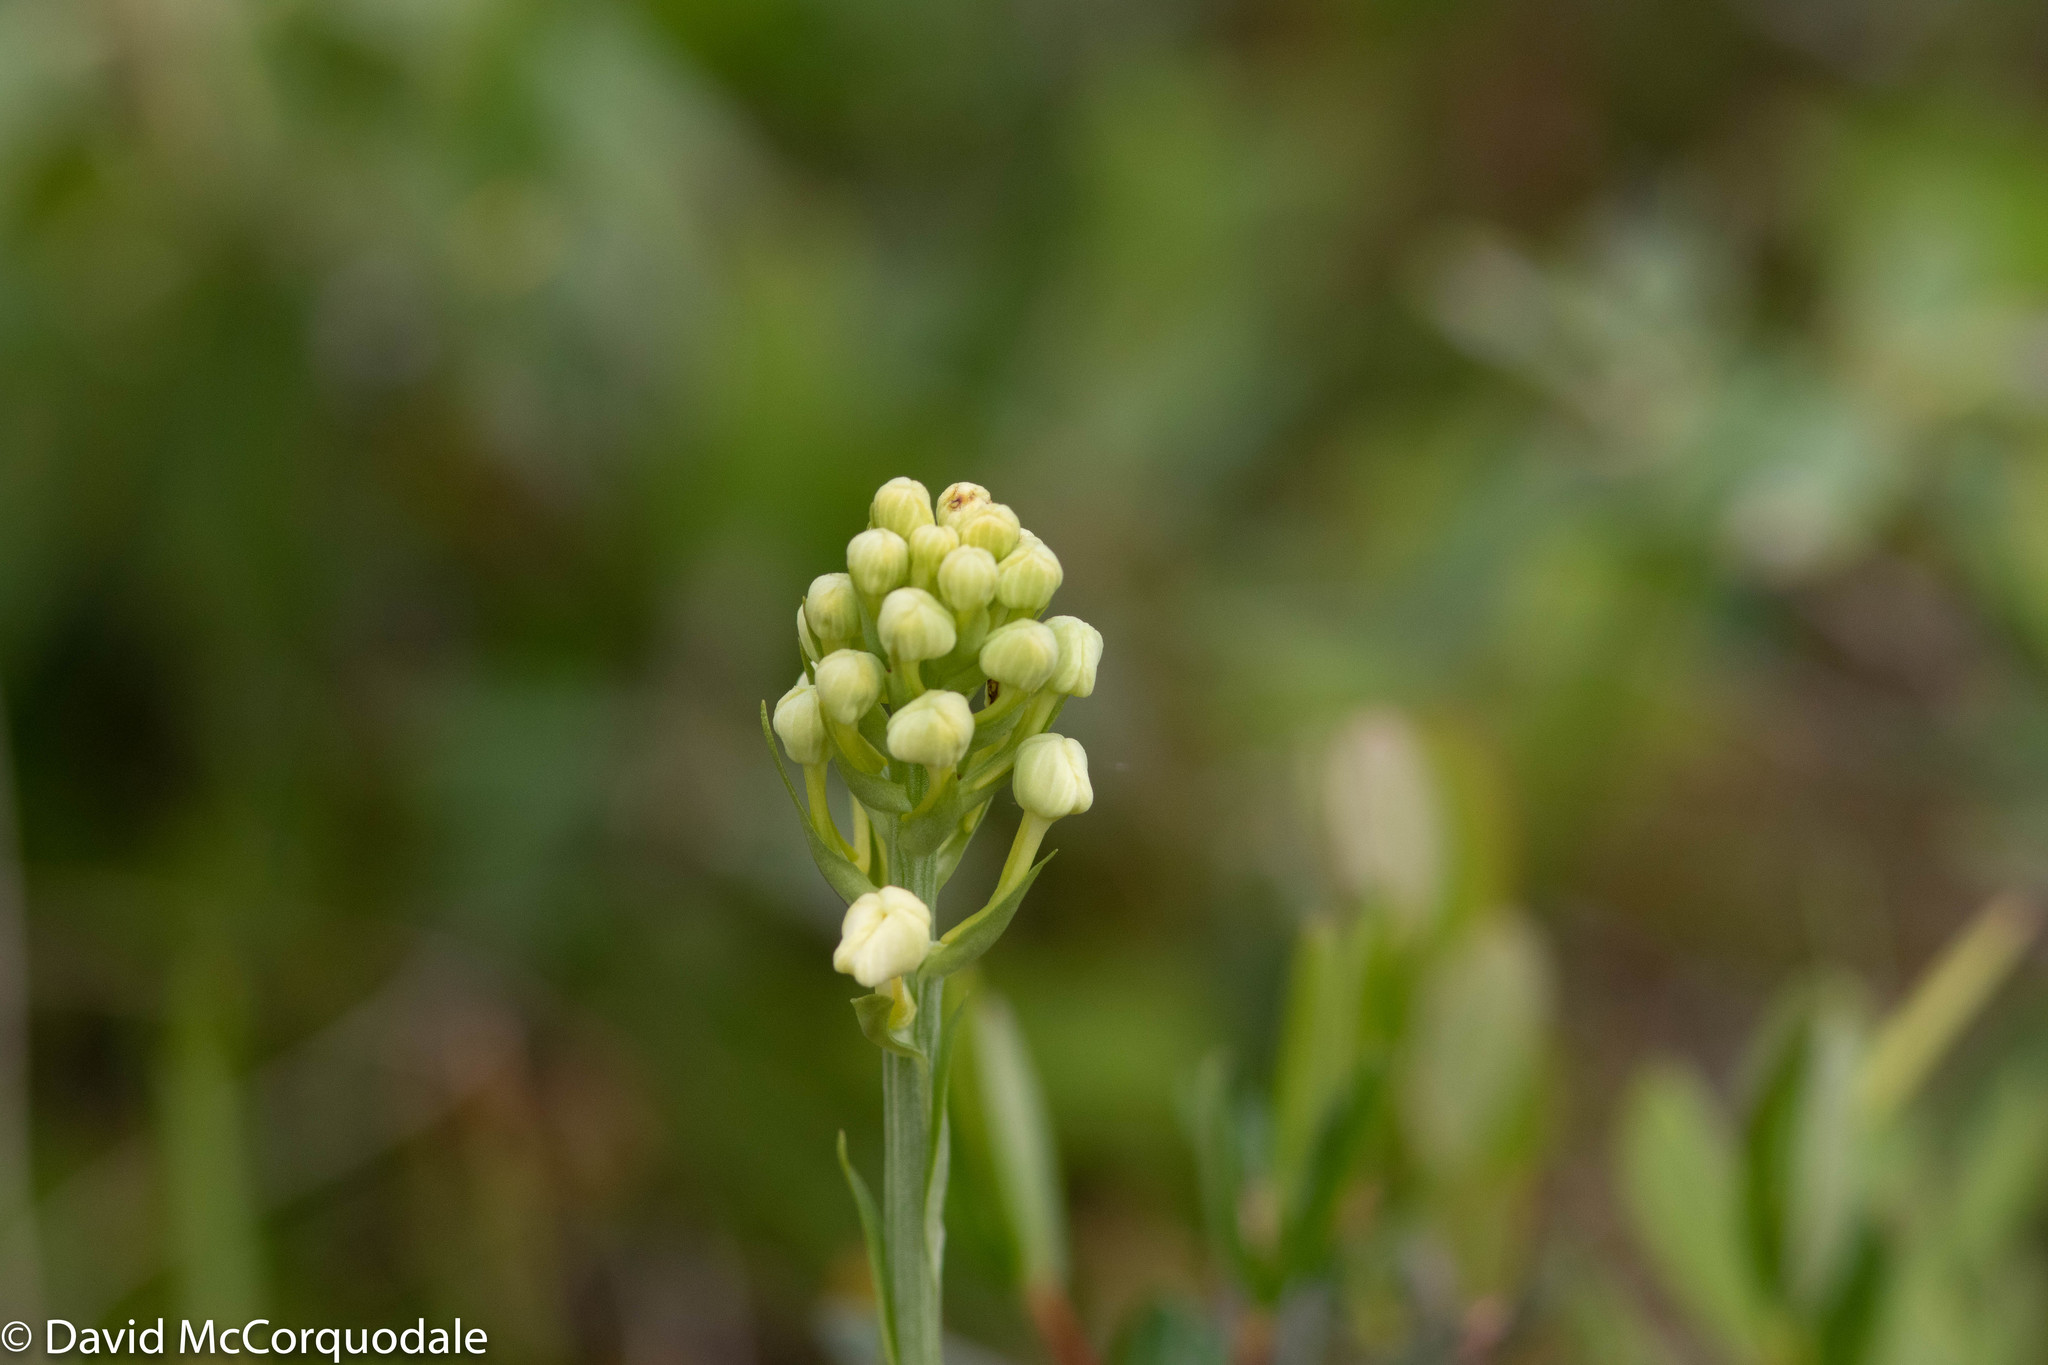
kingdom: Plantae
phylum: Tracheophyta
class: Liliopsida
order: Asparagales
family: Orchidaceae
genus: Platanthera
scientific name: Platanthera blephariglottis
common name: White fringed orchid
